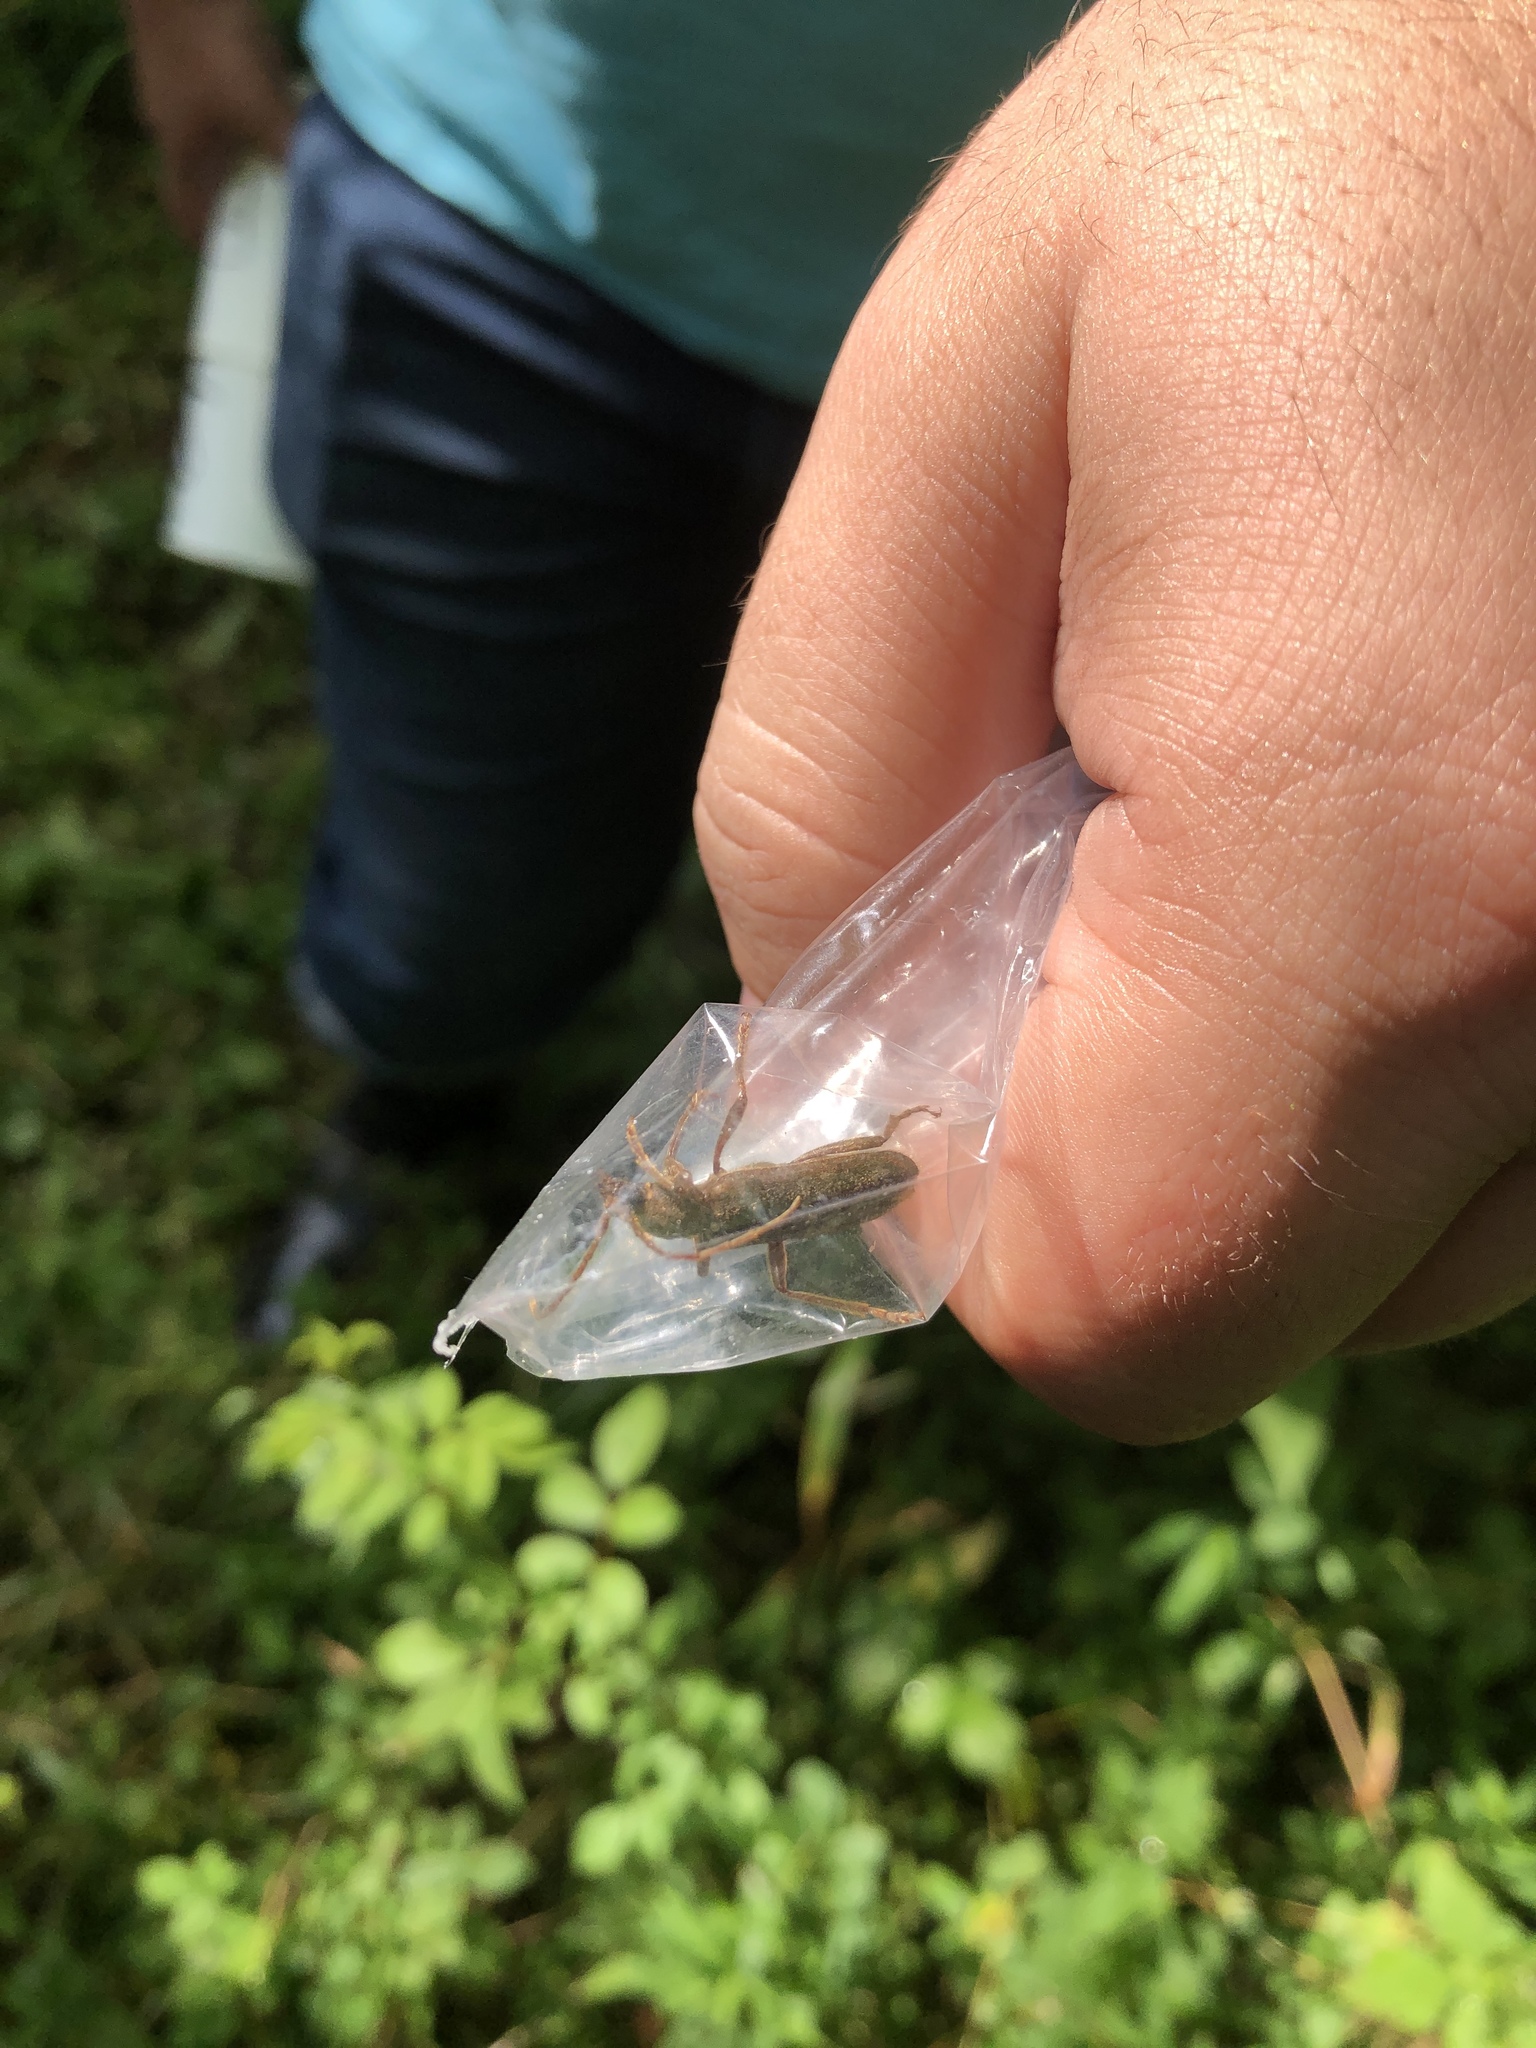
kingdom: Animalia
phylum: Arthropoda
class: Insecta
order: Coleoptera
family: Cerambycidae
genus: Trichoferus
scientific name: Trichoferus campestris
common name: Velvet long horned beetle
